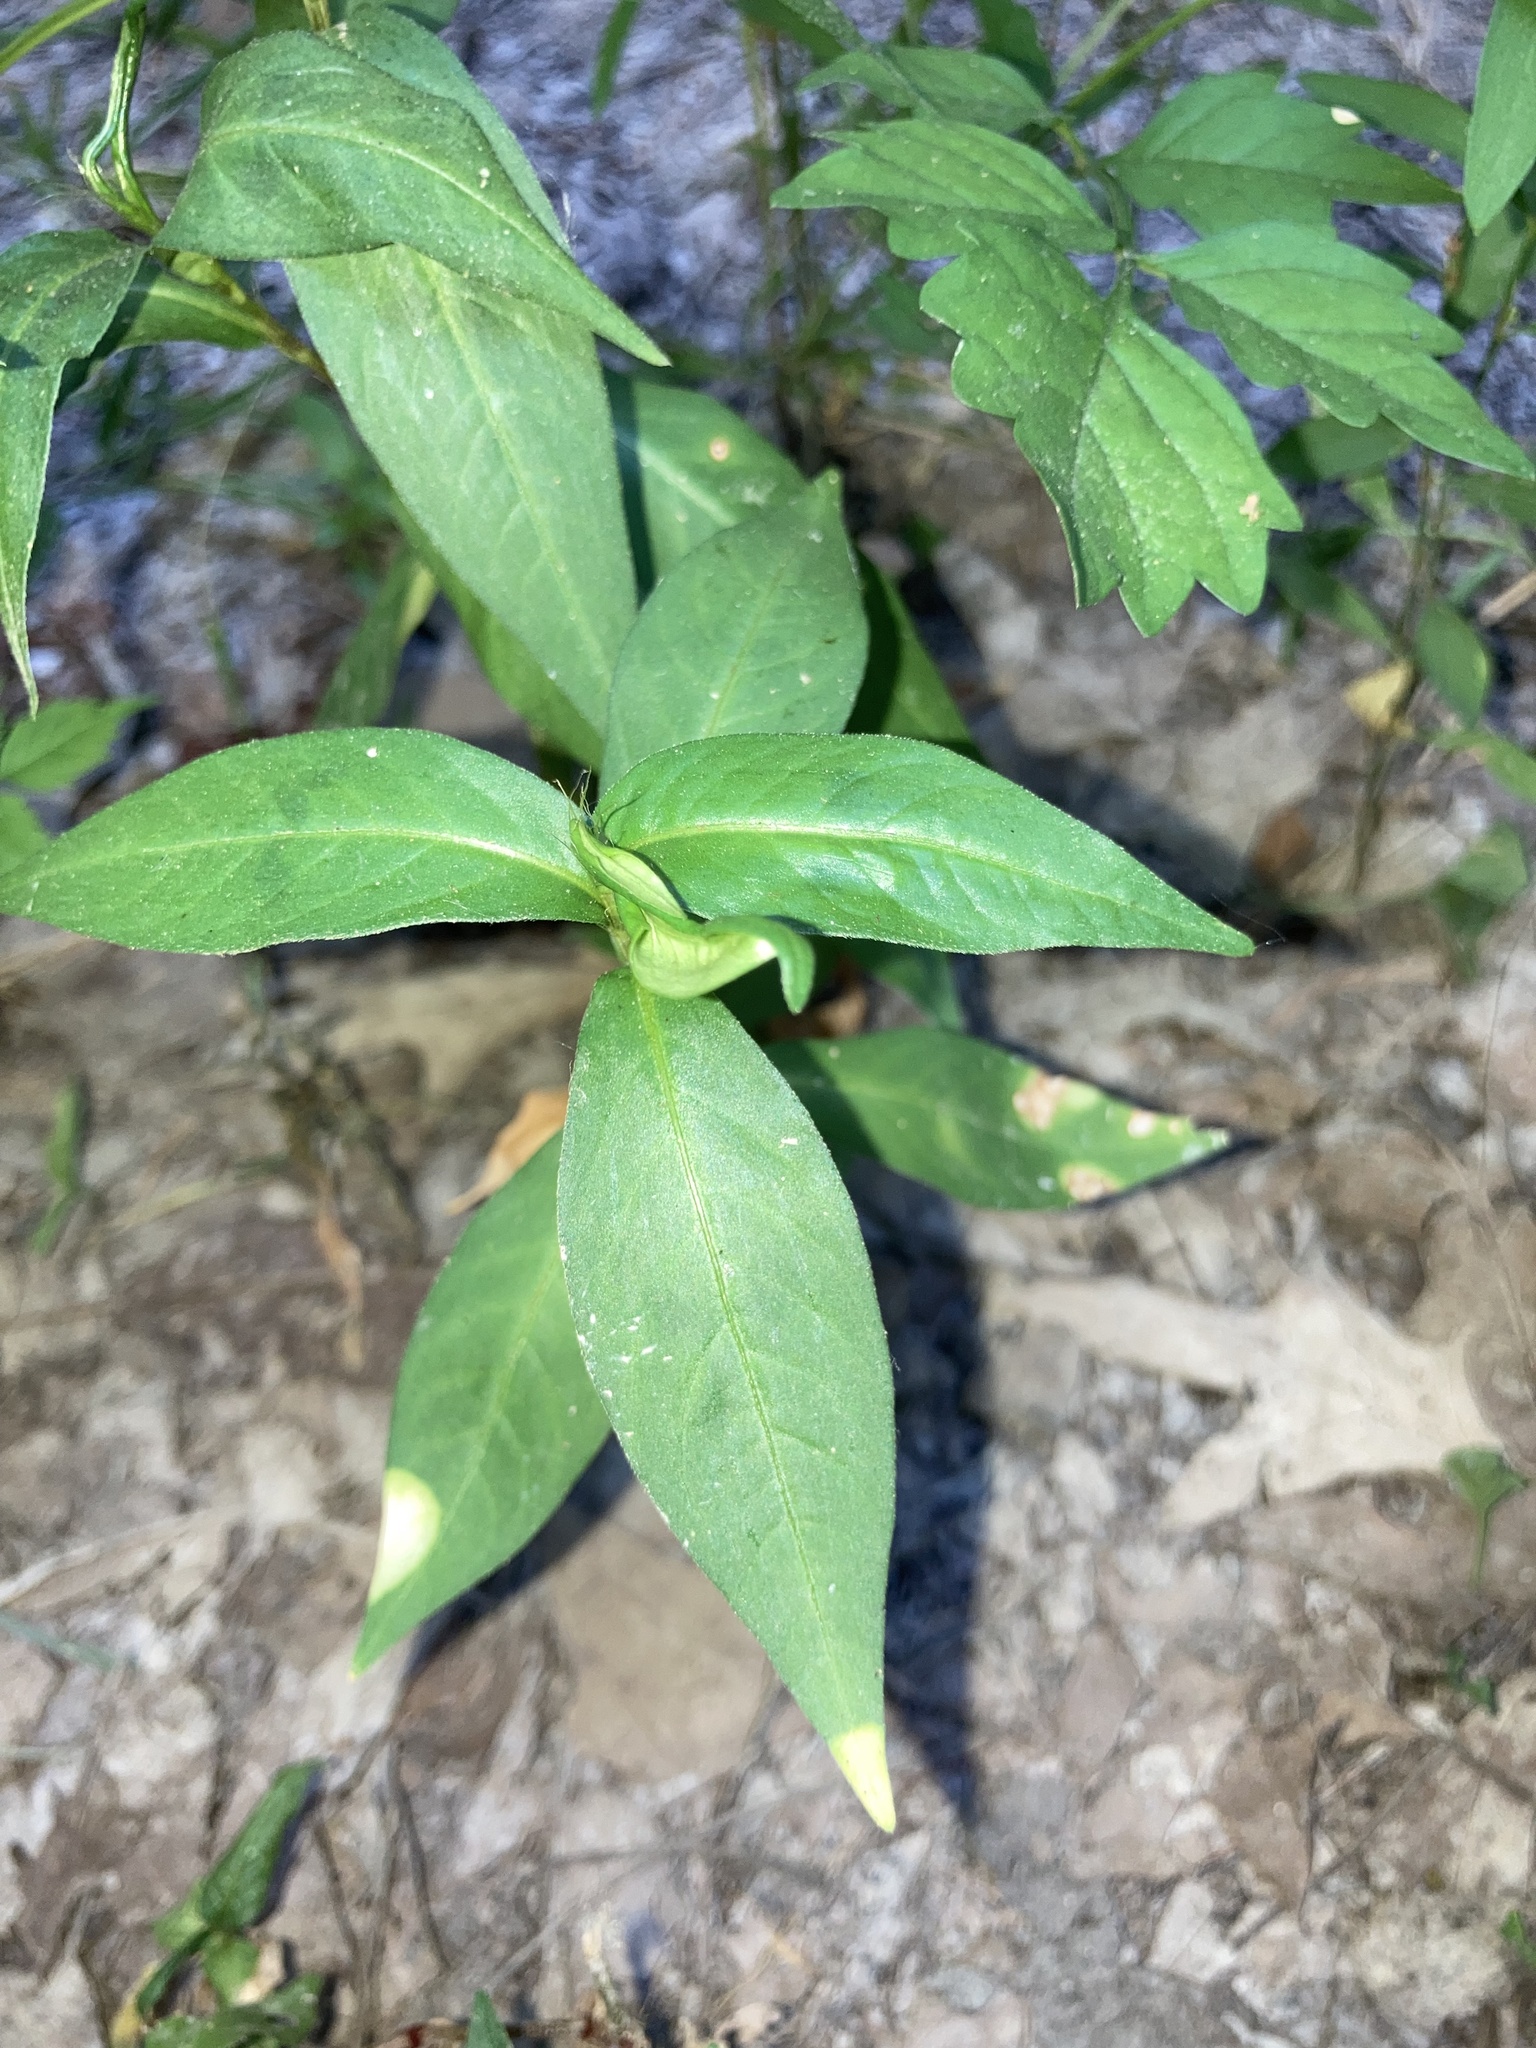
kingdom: Plantae
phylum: Tracheophyta
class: Magnoliopsida
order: Caryophyllales
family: Polygonaceae
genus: Persicaria
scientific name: Persicaria longiseta
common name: Bristly lady's-thumb
